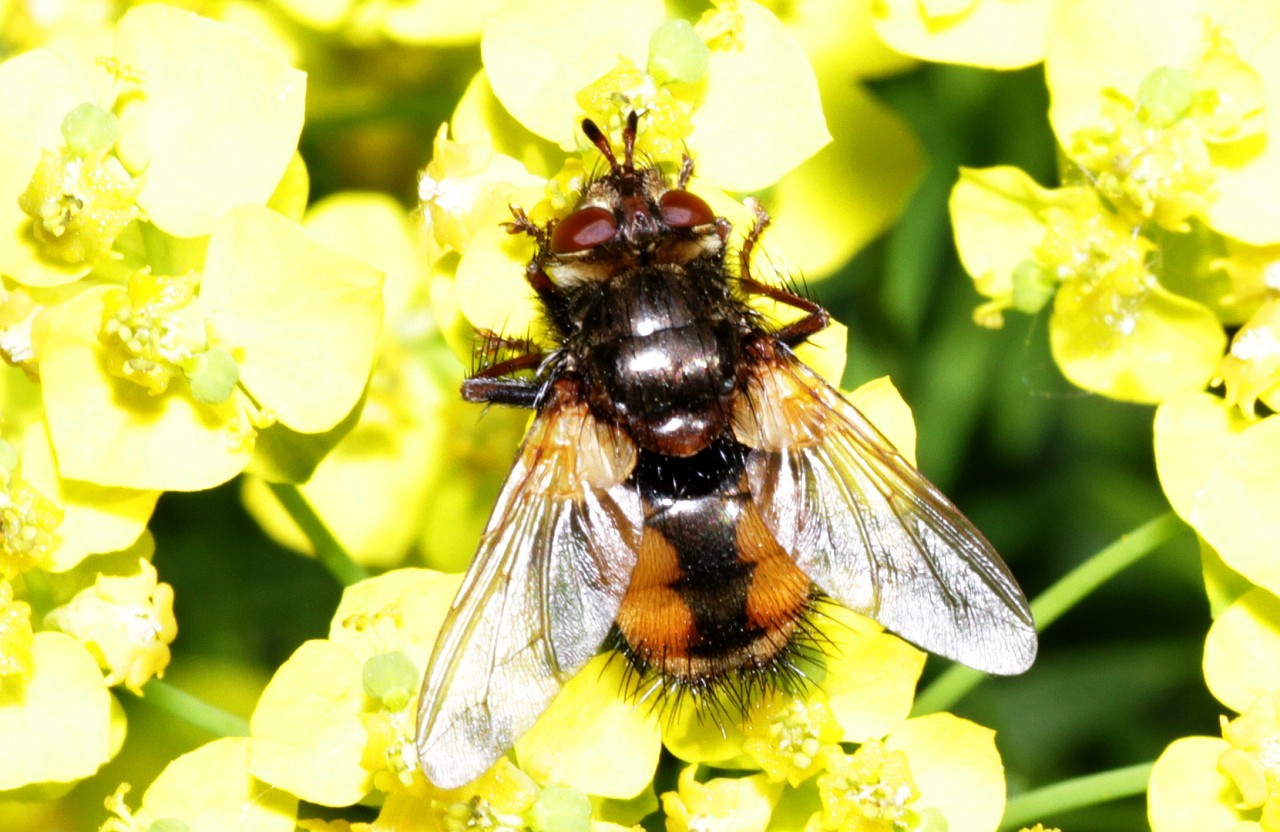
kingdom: Animalia
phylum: Arthropoda
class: Insecta
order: Diptera
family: Tachinidae
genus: Tachina
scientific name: Tachina fera
